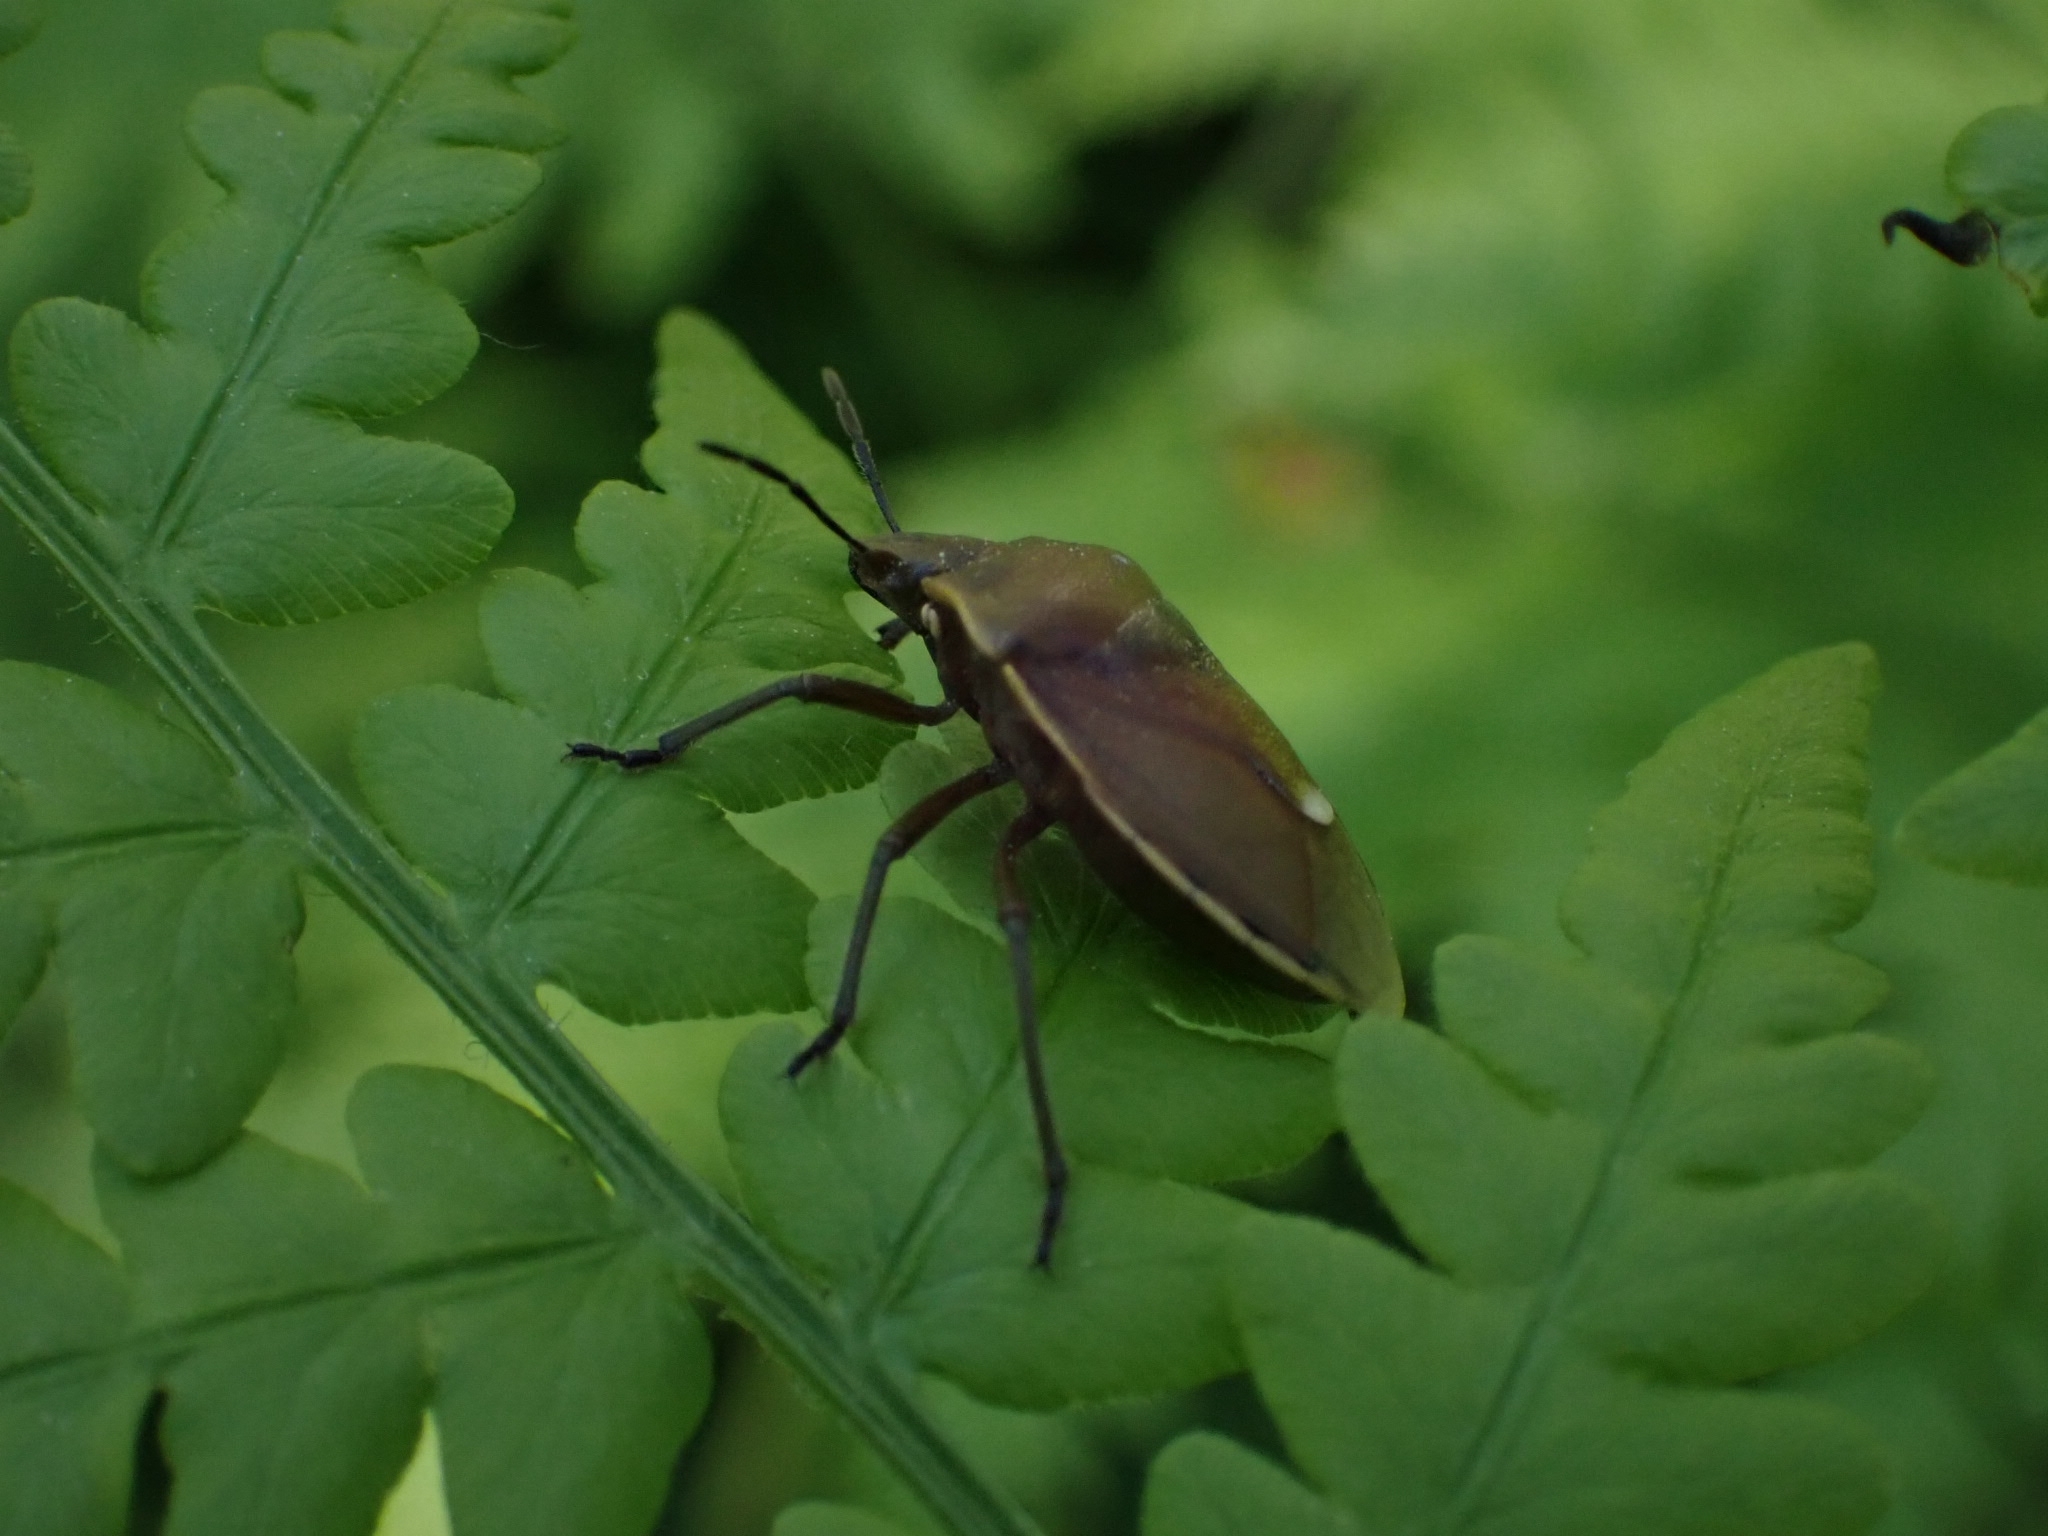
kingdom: Animalia
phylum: Arthropoda
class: Insecta
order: Hemiptera
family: Pentatomidae
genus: Chlorochroa
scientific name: Chlorochroa pinicola
